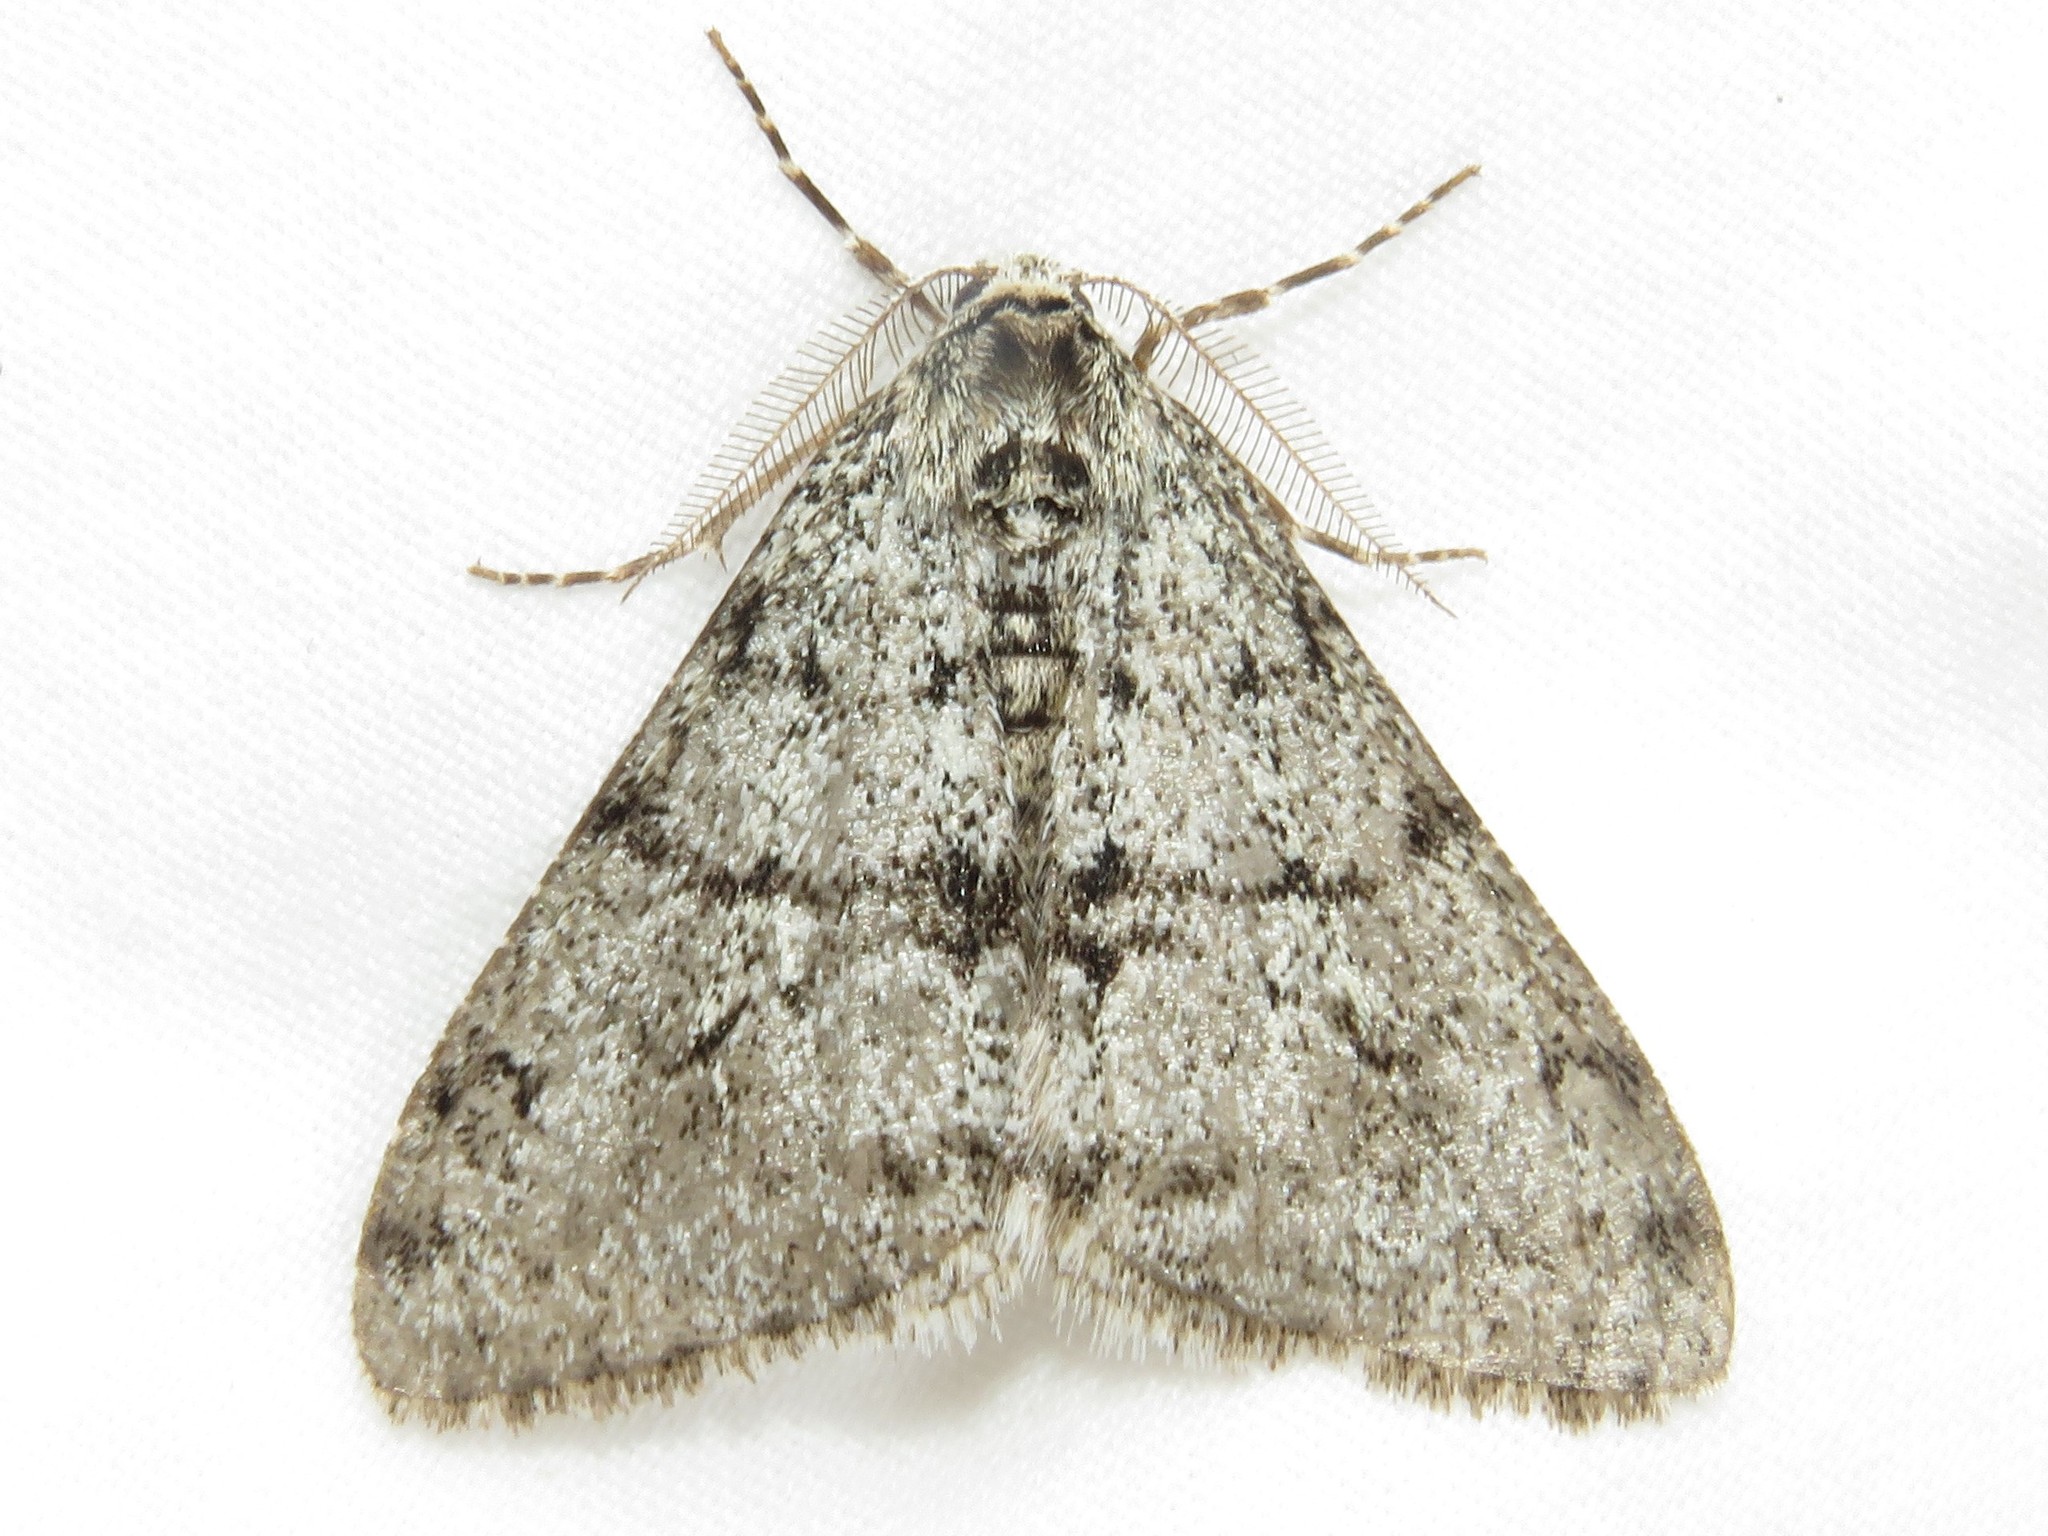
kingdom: Animalia
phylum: Arthropoda
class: Insecta
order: Lepidoptera
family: Geometridae
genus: Phigalia
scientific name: Phigalia strigataria
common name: Small phigalia
